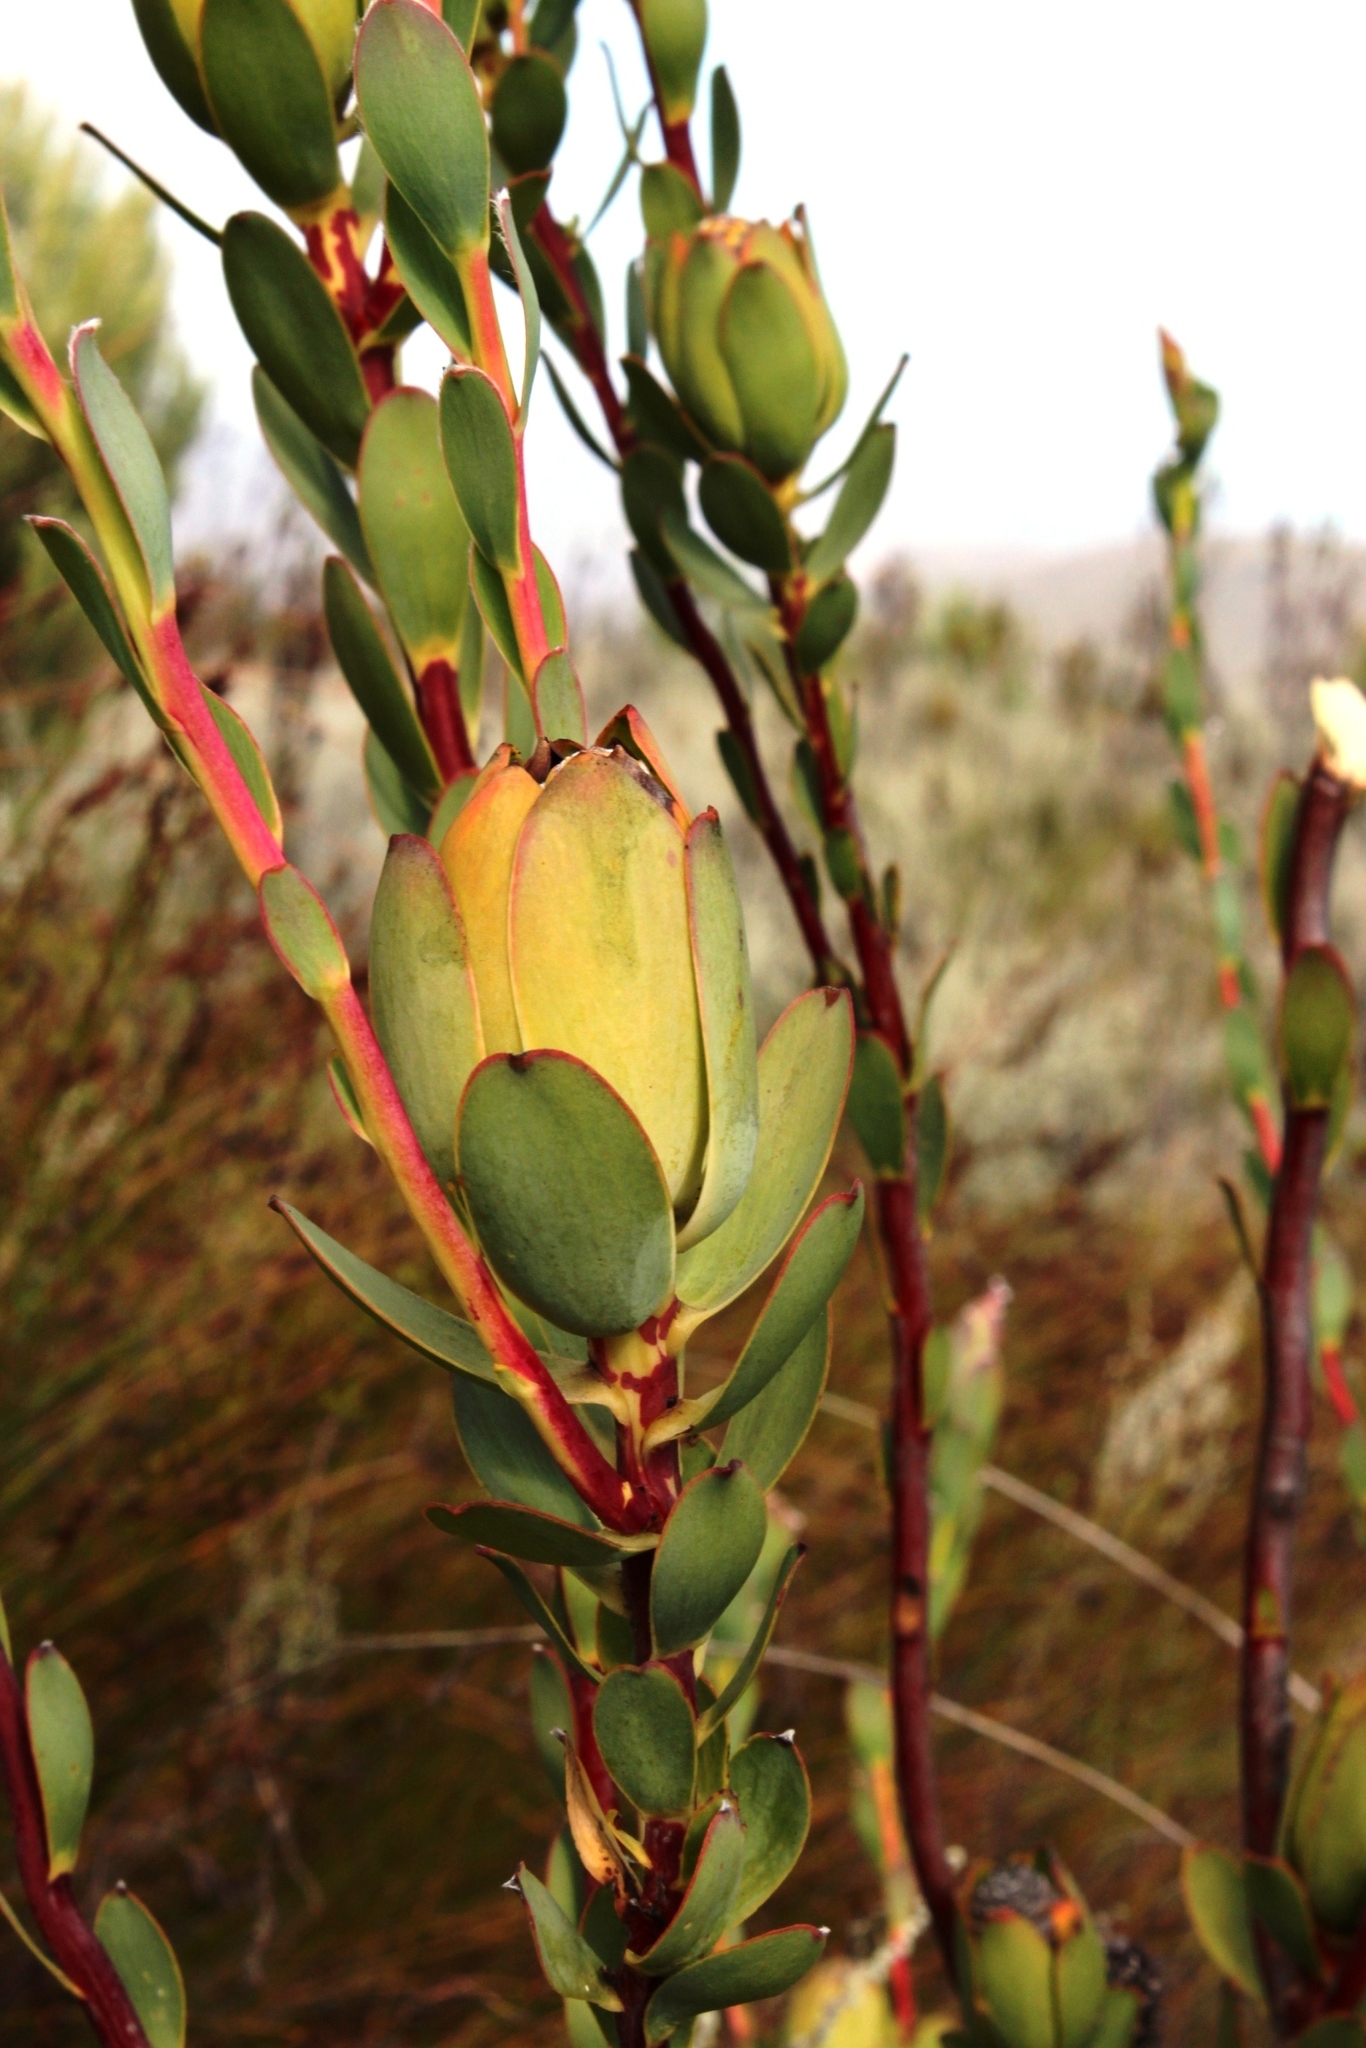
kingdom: Plantae
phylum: Tracheophyta
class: Magnoliopsida
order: Proteales
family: Proteaceae
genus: Leucadendron
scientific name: Leucadendron discolor
